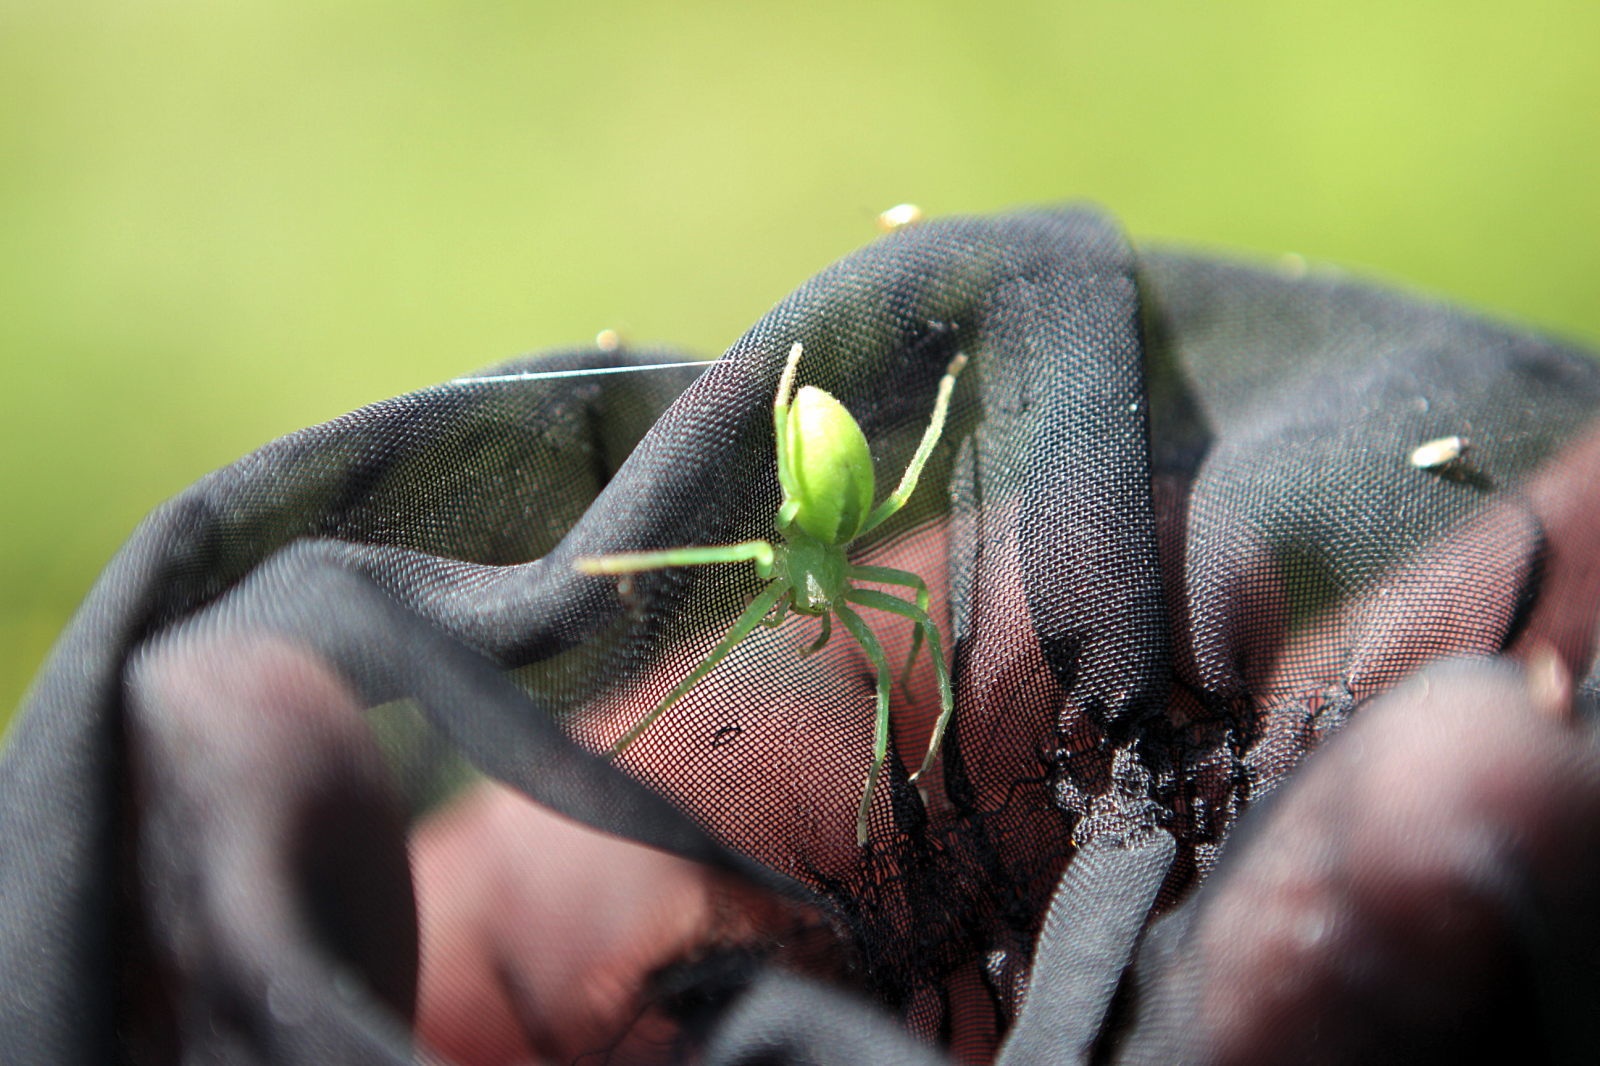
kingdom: Animalia
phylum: Arthropoda
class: Arachnida
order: Araneae
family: Sparassidae
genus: Micrommata
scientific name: Micrommata virescens
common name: Green spider
